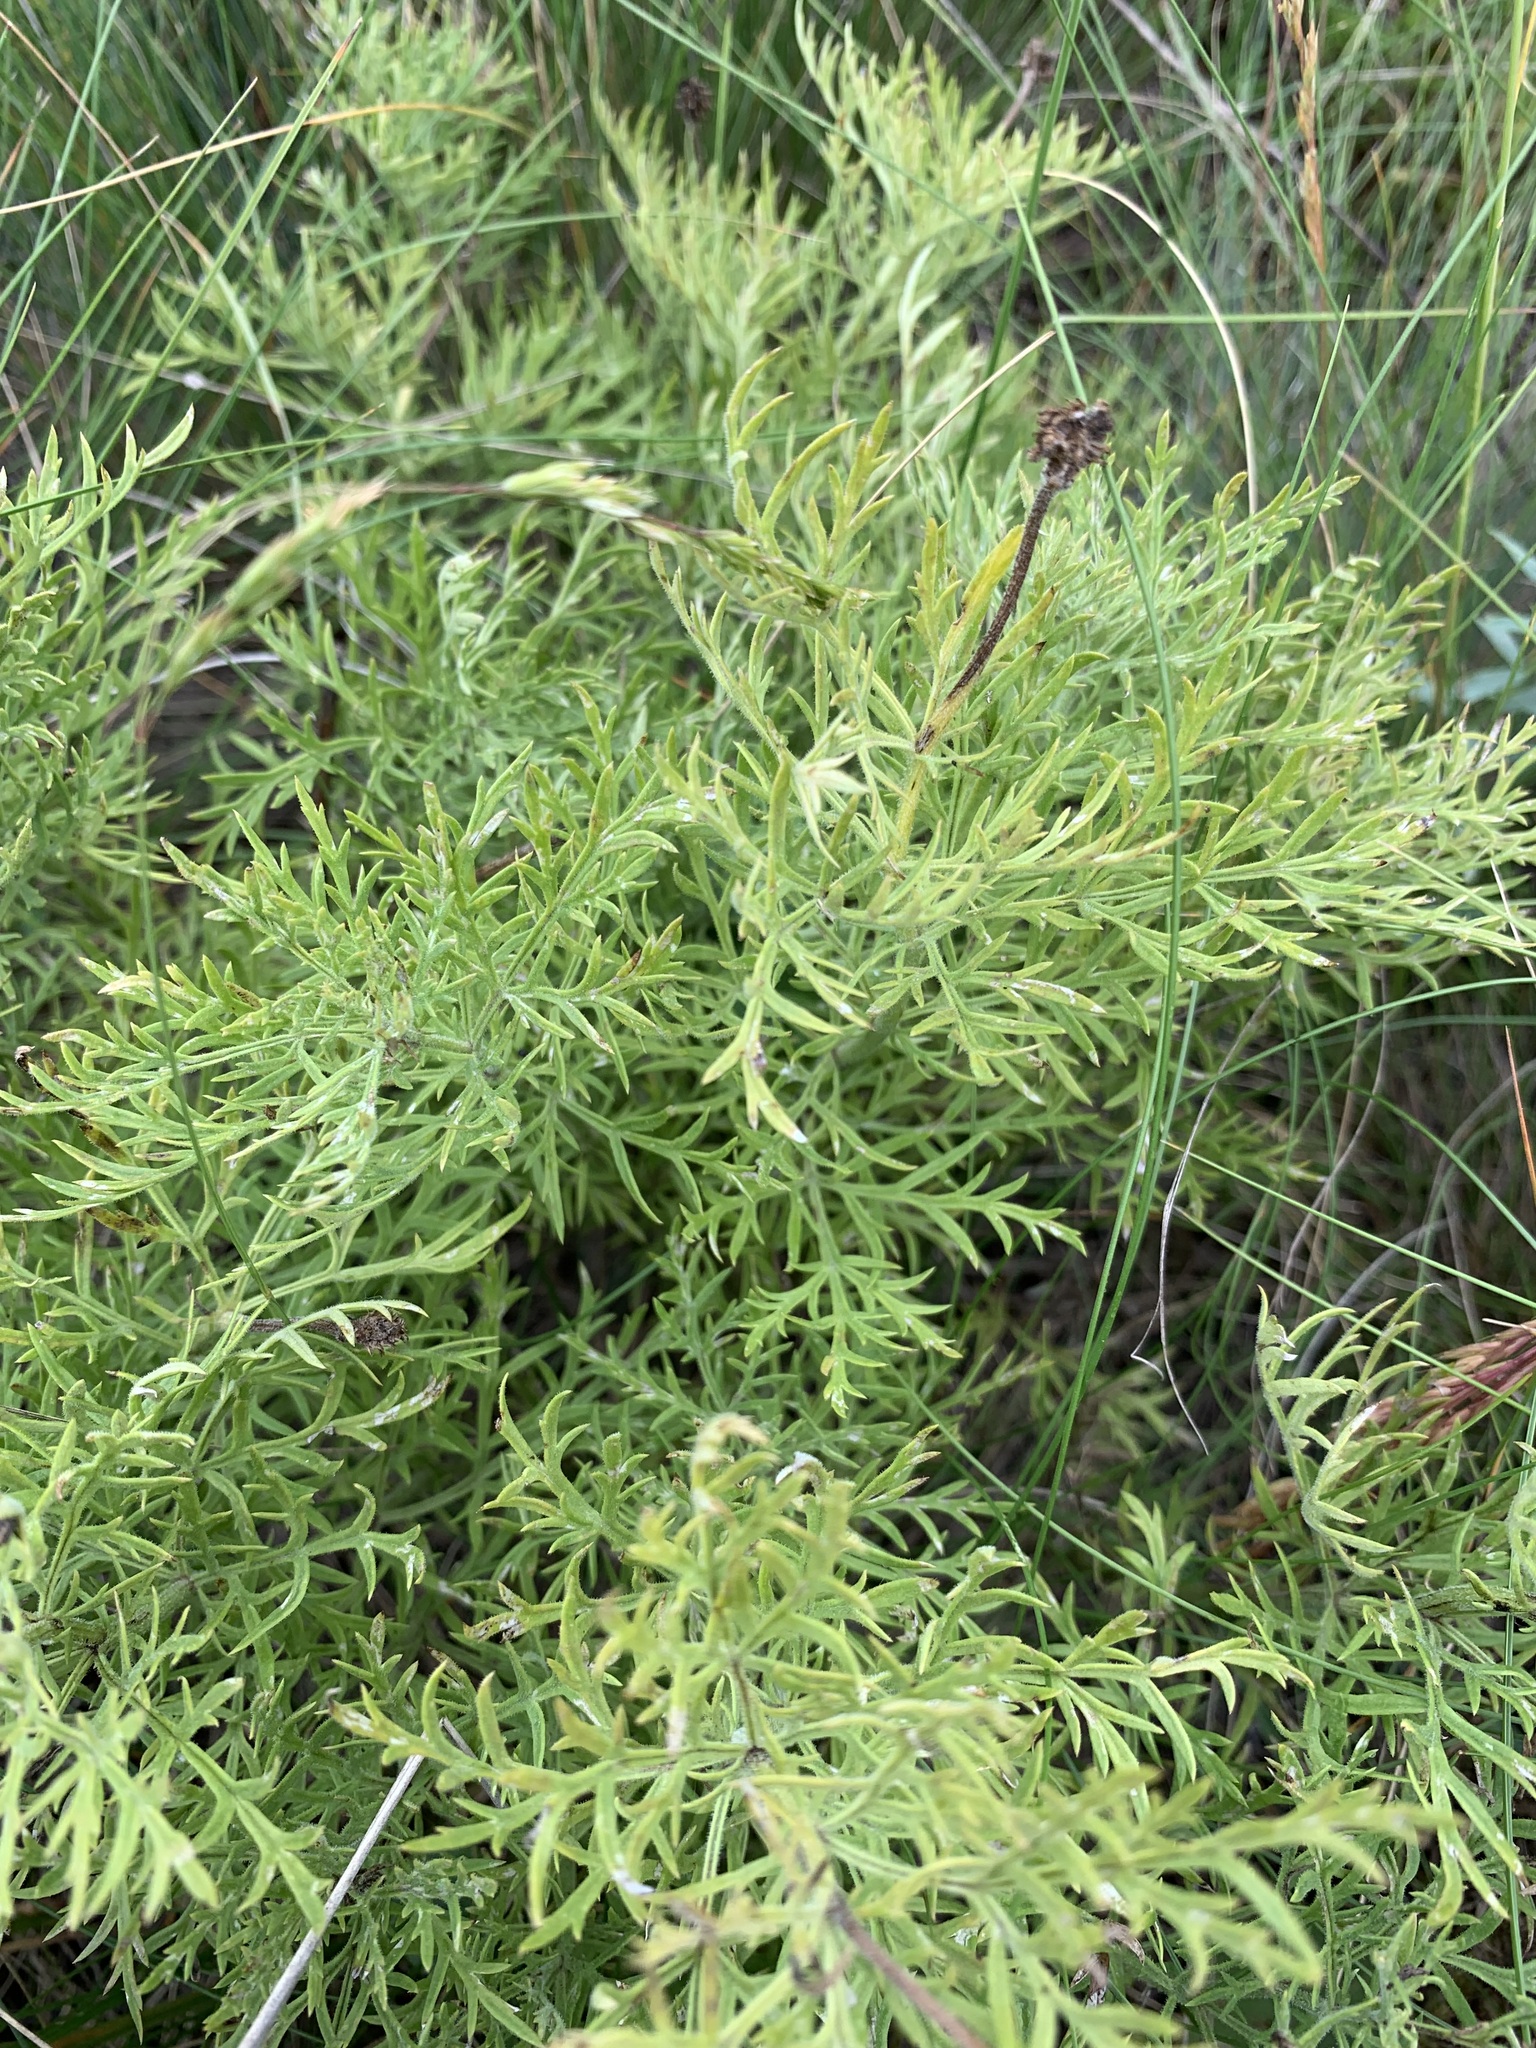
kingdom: Plantae
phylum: Tracheophyta
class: Magnoliopsida
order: Ranunculales
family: Ranunculaceae
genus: Adonis
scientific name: Adonis volgensis
